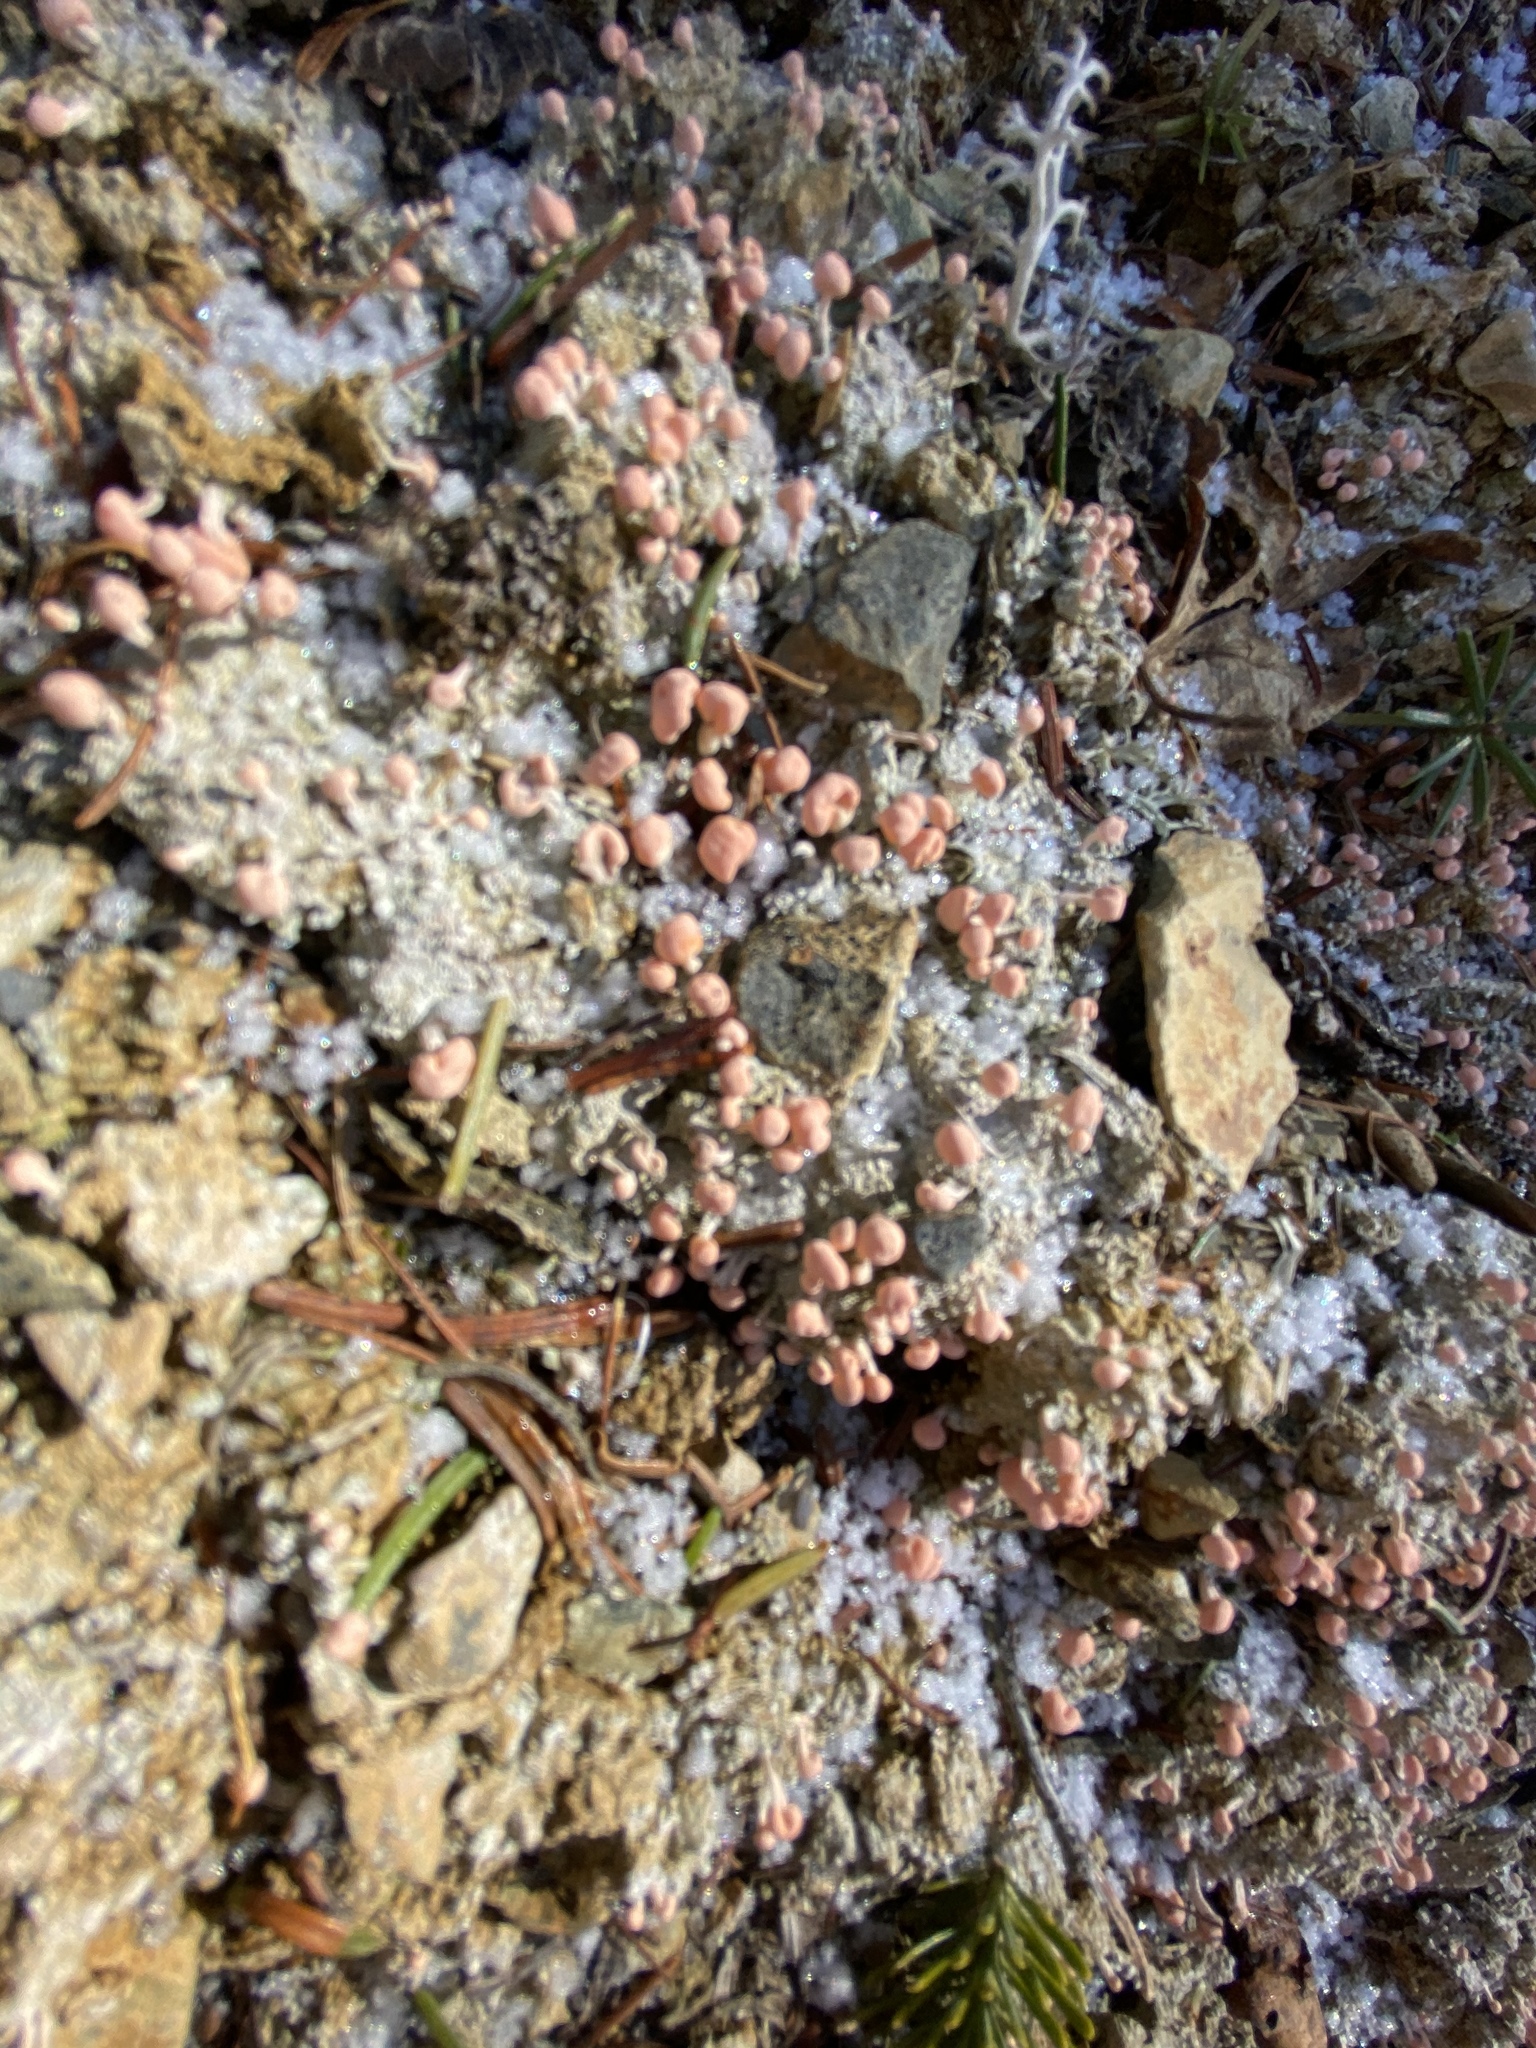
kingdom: Fungi
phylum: Ascomycota
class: Lecanoromycetes
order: Pertusariales
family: Icmadophilaceae
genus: Dibaeis
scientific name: Dibaeis baeomyces
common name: Pink earth lichen
